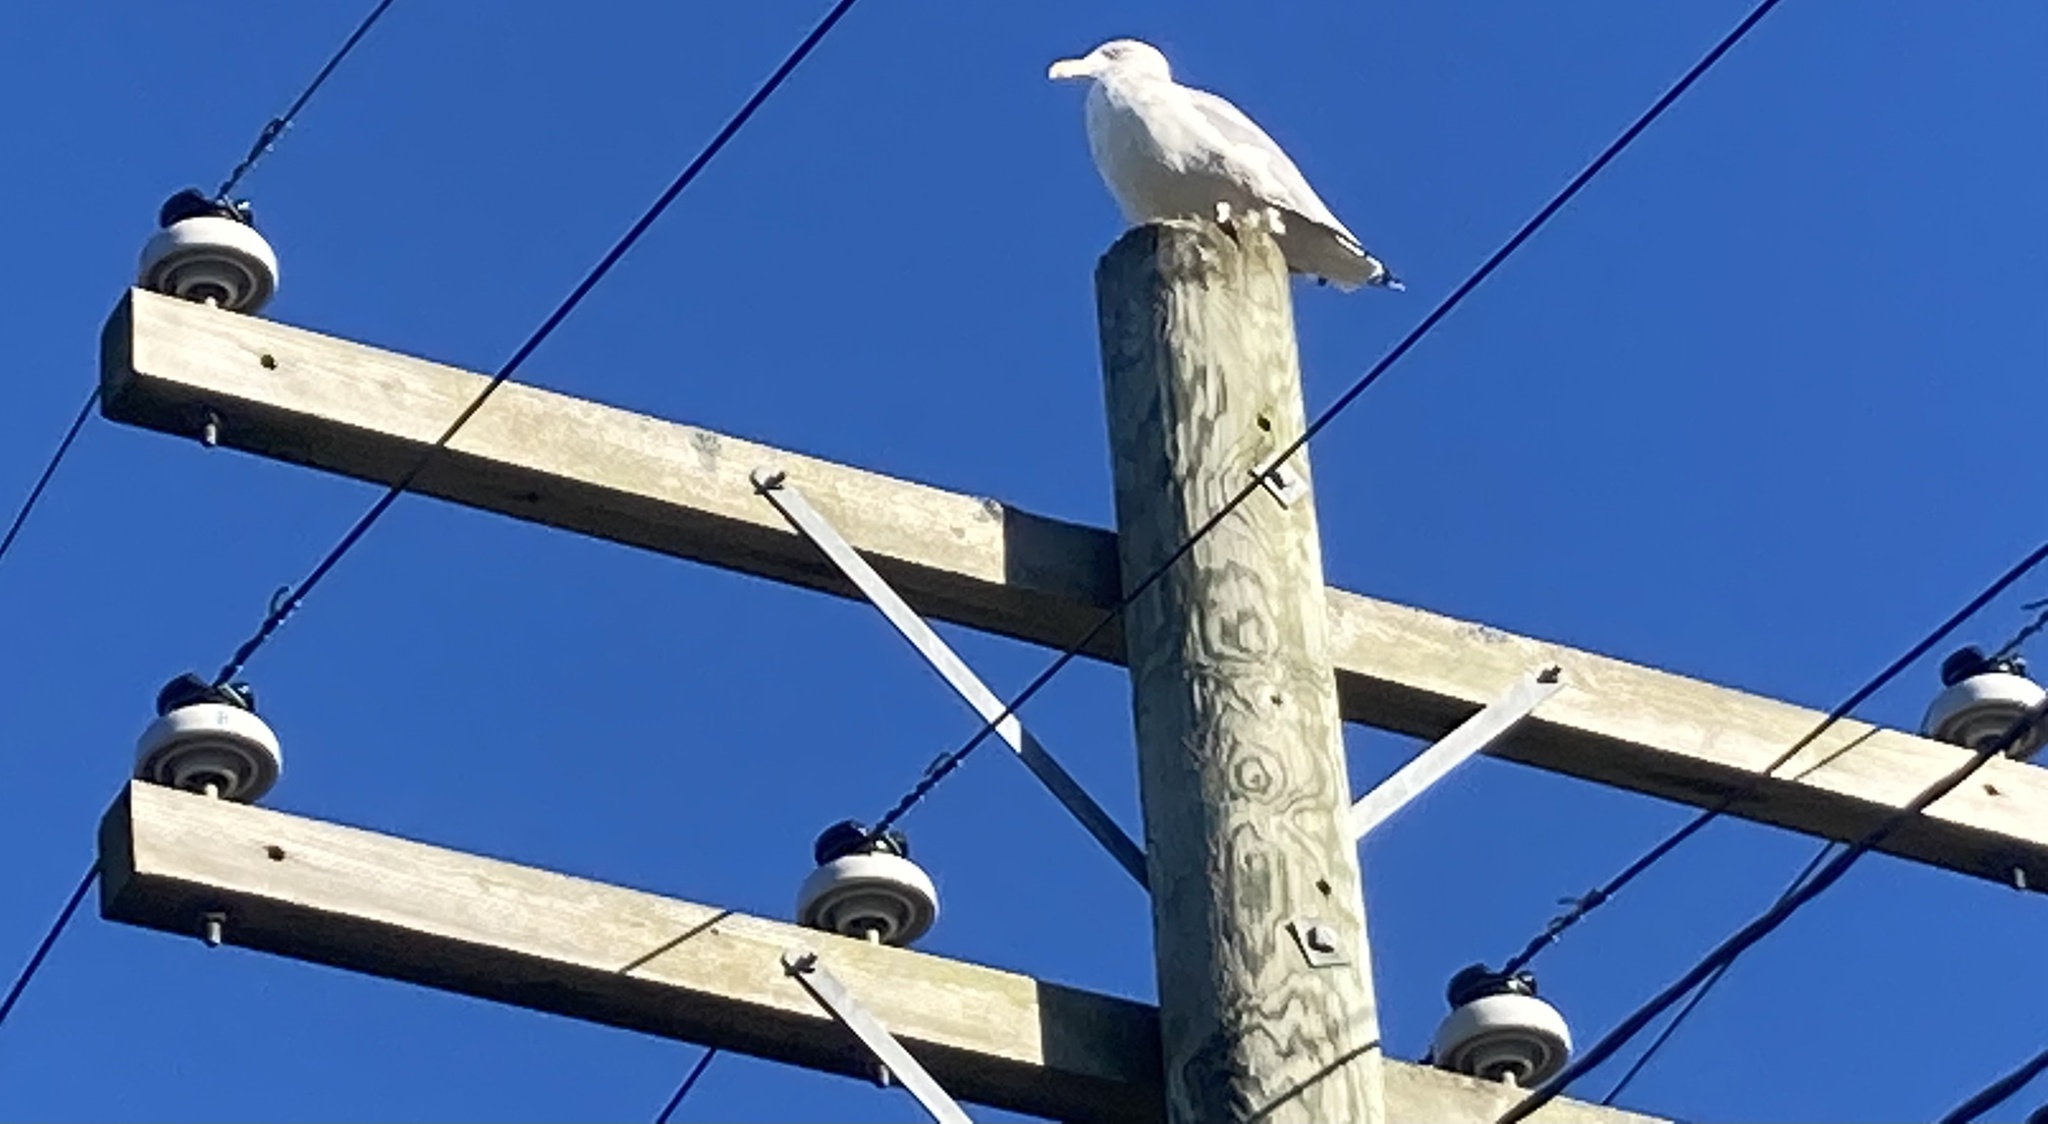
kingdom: Animalia
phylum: Chordata
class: Aves
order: Charadriiformes
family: Laridae
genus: Larus
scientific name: Larus argentatus
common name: Herring gull
